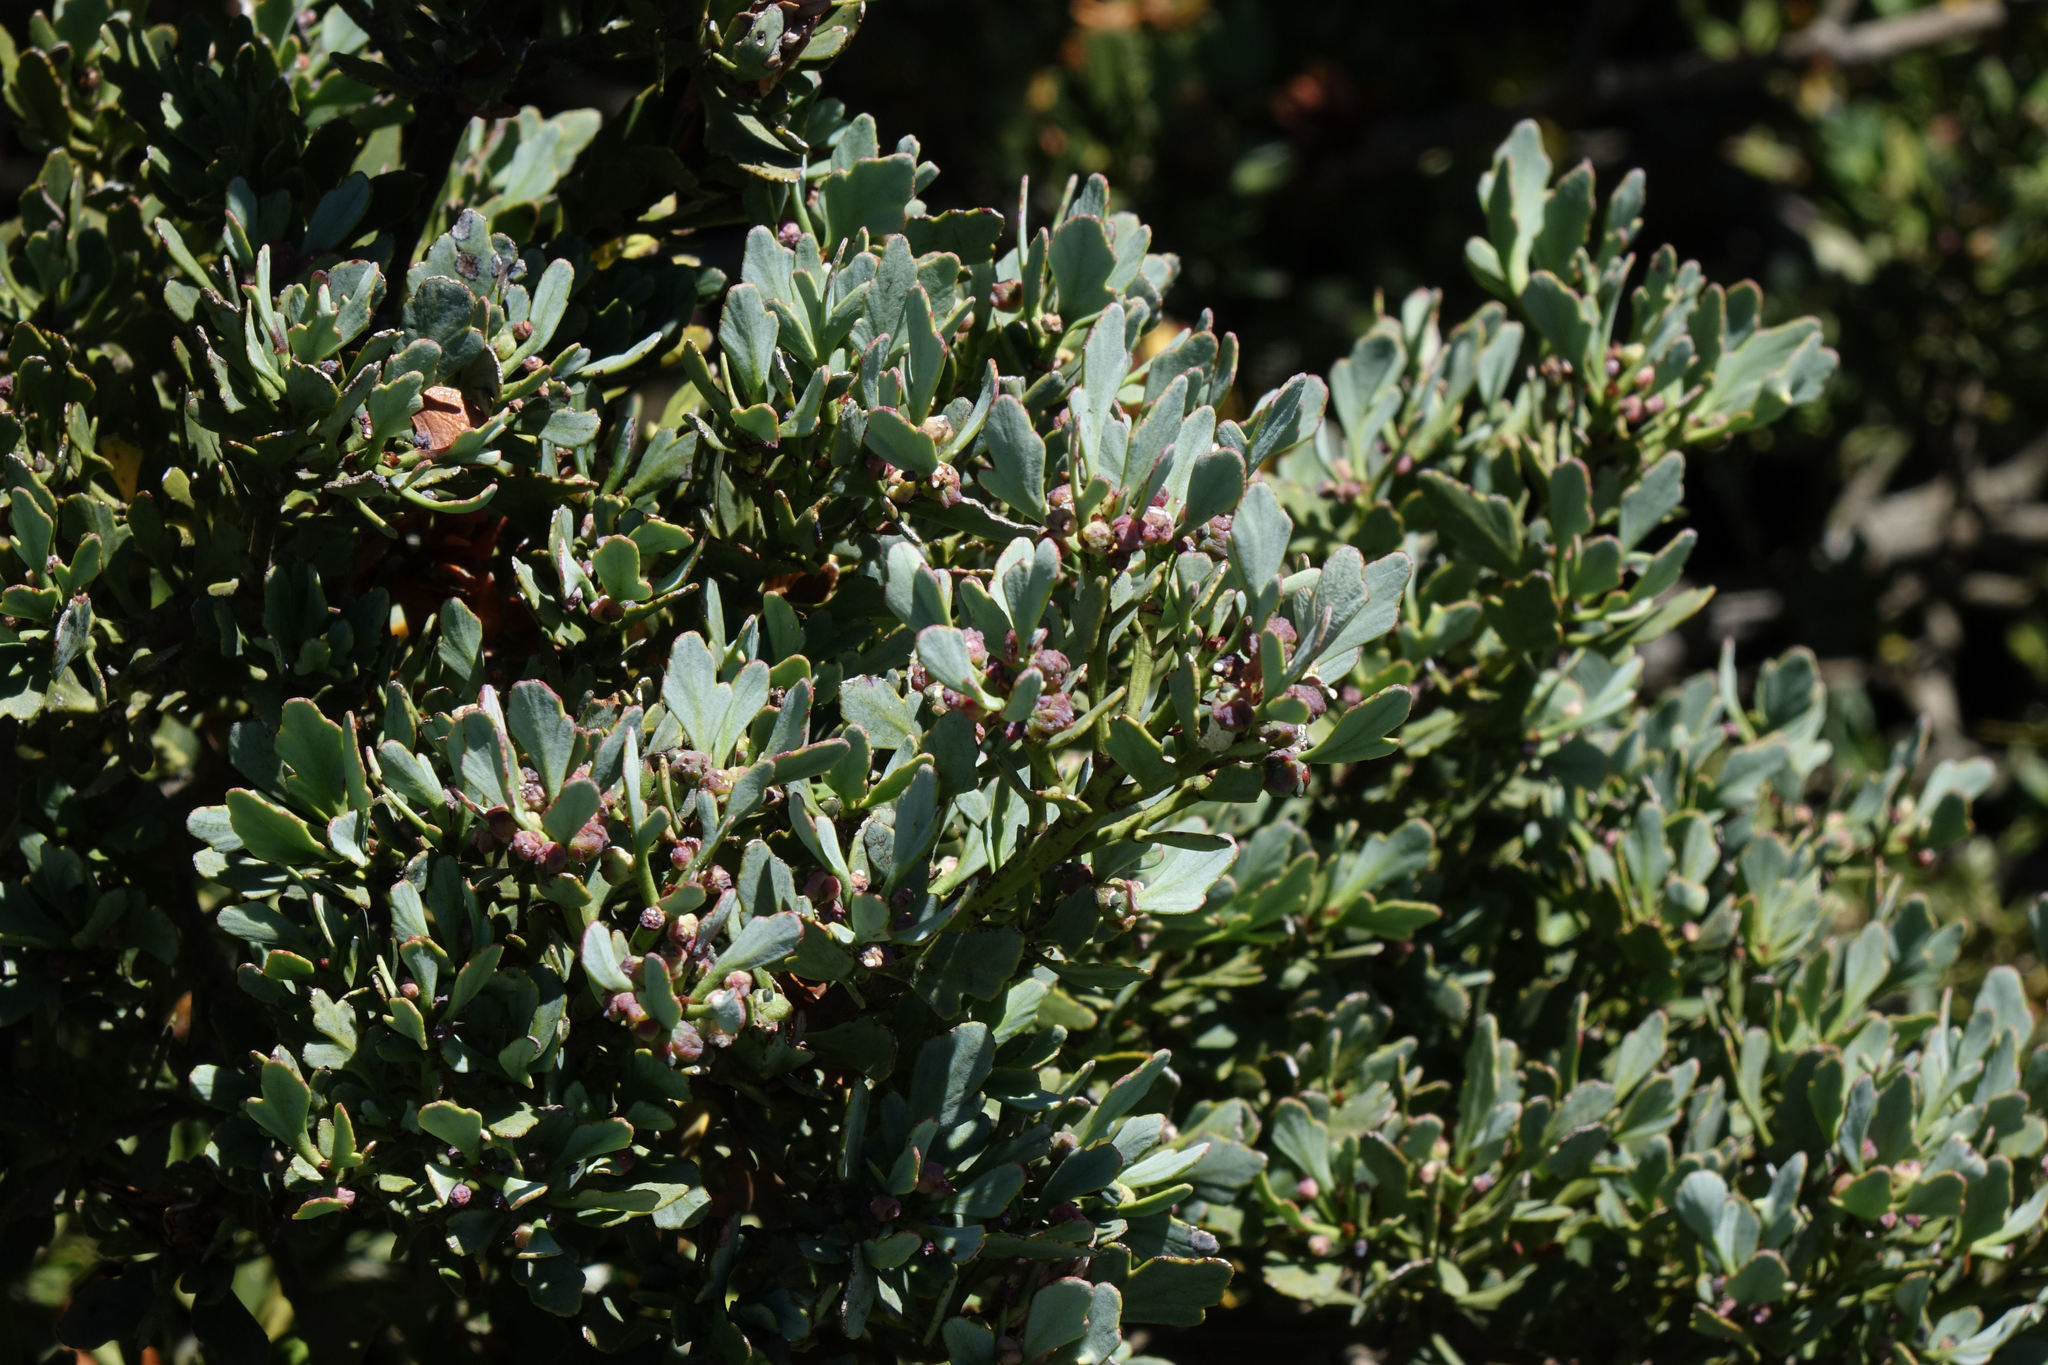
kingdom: Plantae
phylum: Tracheophyta
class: Pinopsida
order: Pinales
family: Phyllocladaceae
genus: Phyllocladus
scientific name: Phyllocladus trichomanoides
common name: Celery pine
